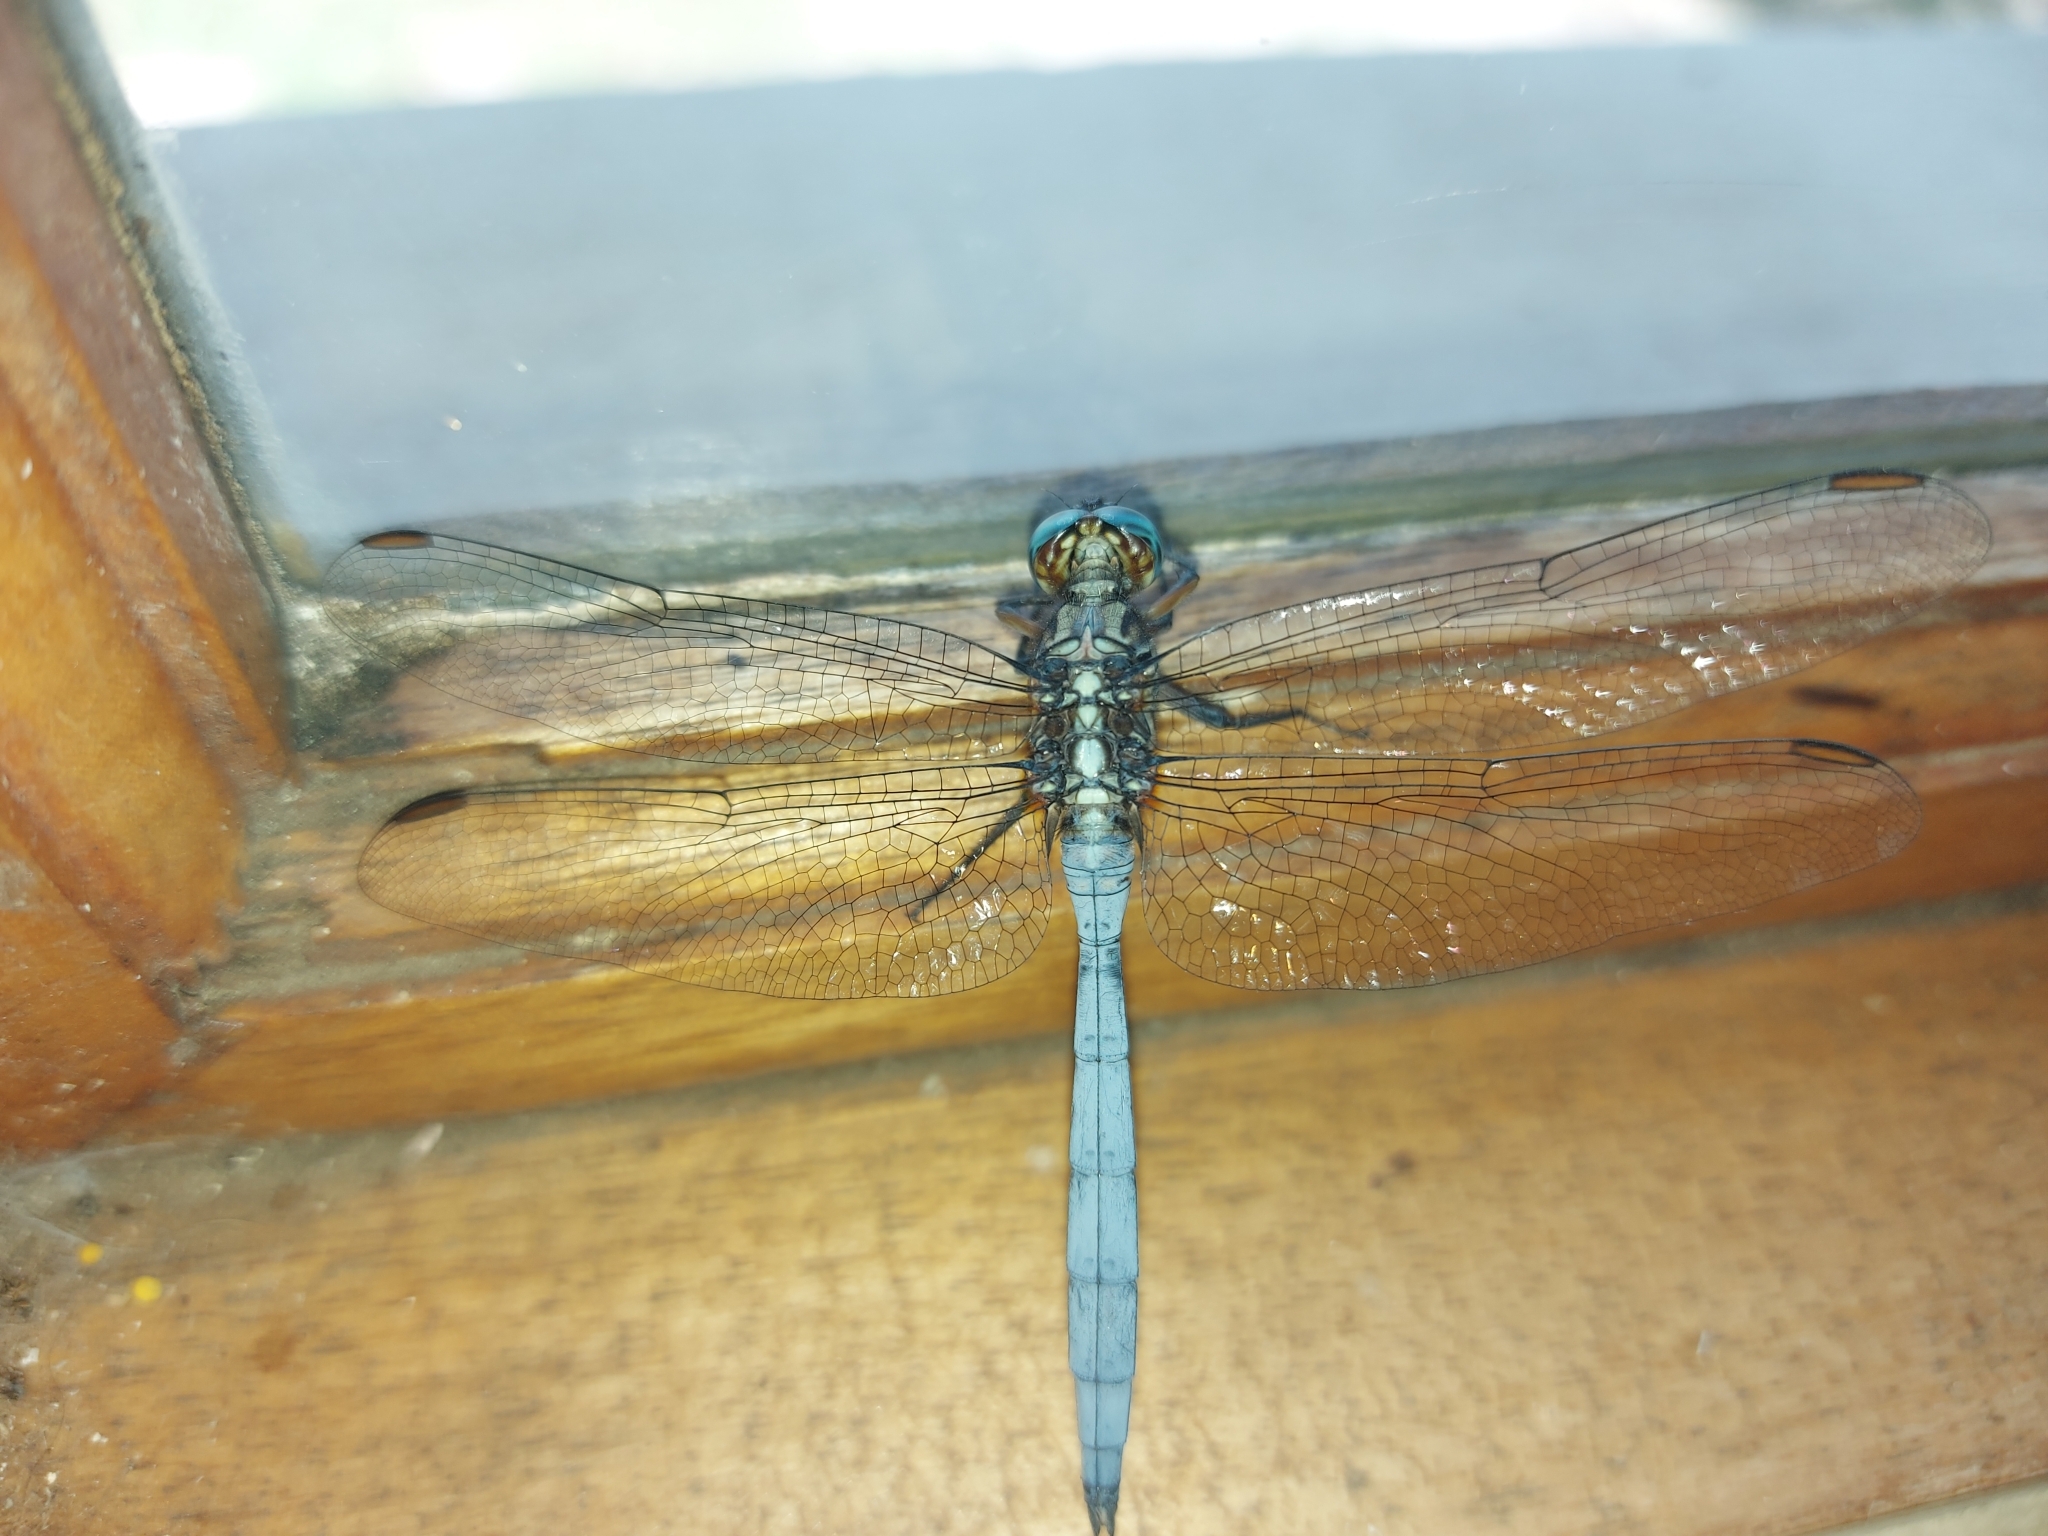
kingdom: Animalia
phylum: Arthropoda
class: Insecta
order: Odonata
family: Libellulidae
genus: Orthetrum
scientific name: Orthetrum julia
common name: Julia skimmer
